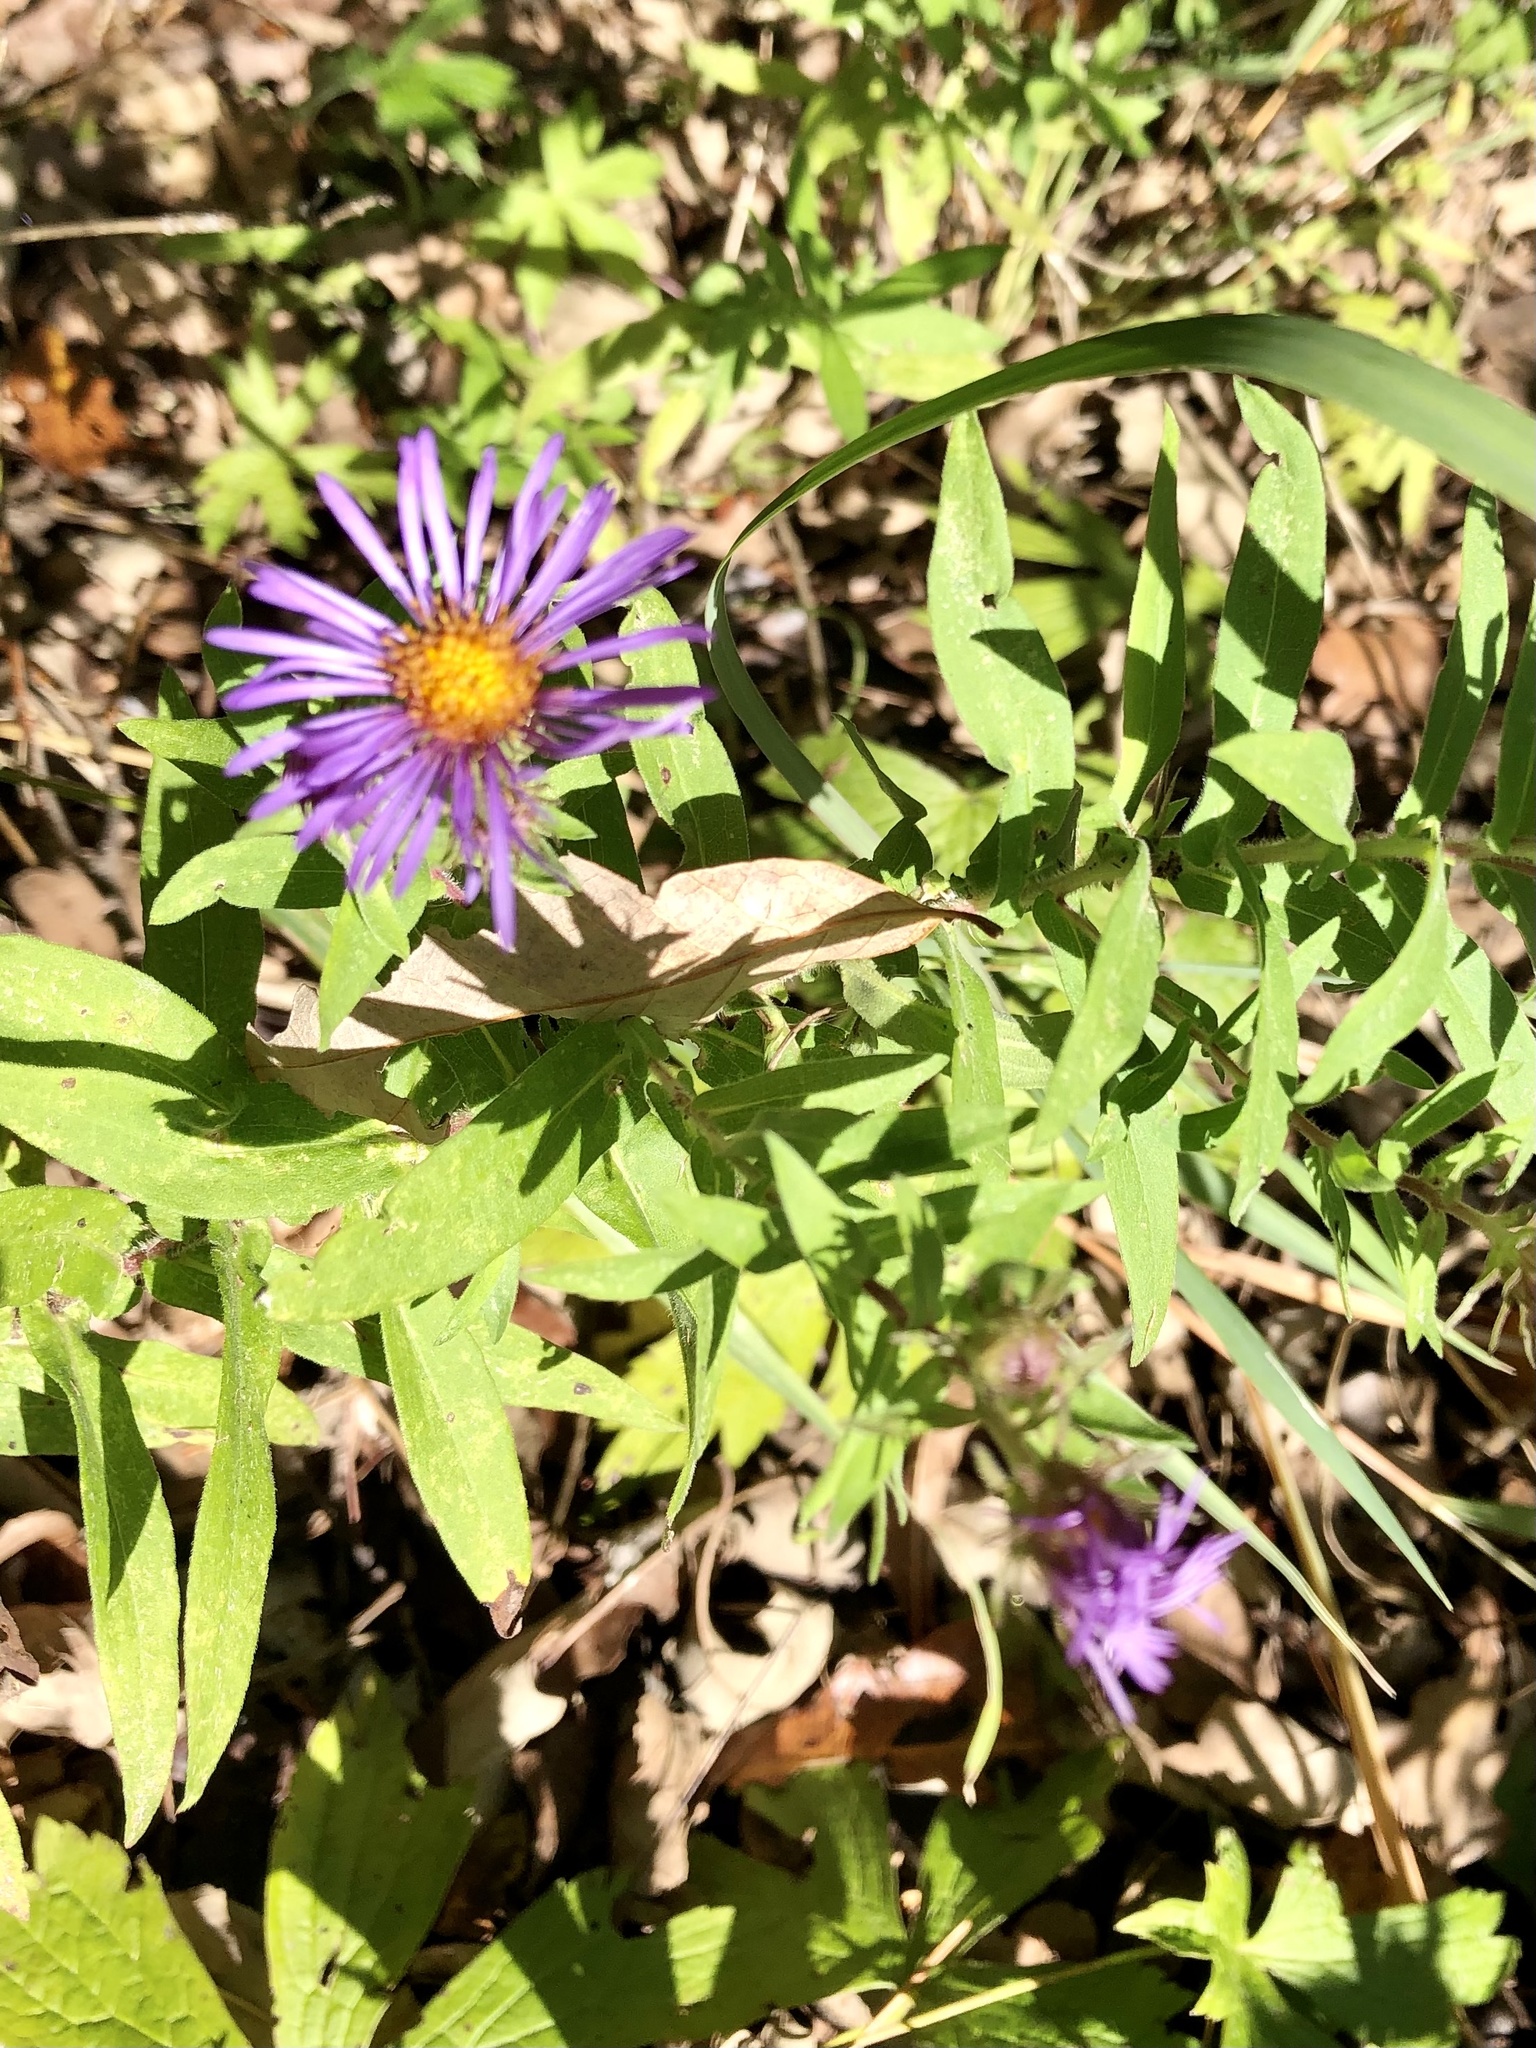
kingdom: Plantae
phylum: Tracheophyta
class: Magnoliopsida
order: Asterales
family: Asteraceae
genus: Symphyotrichum
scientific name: Symphyotrichum novae-angliae
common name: Michaelmas daisy
